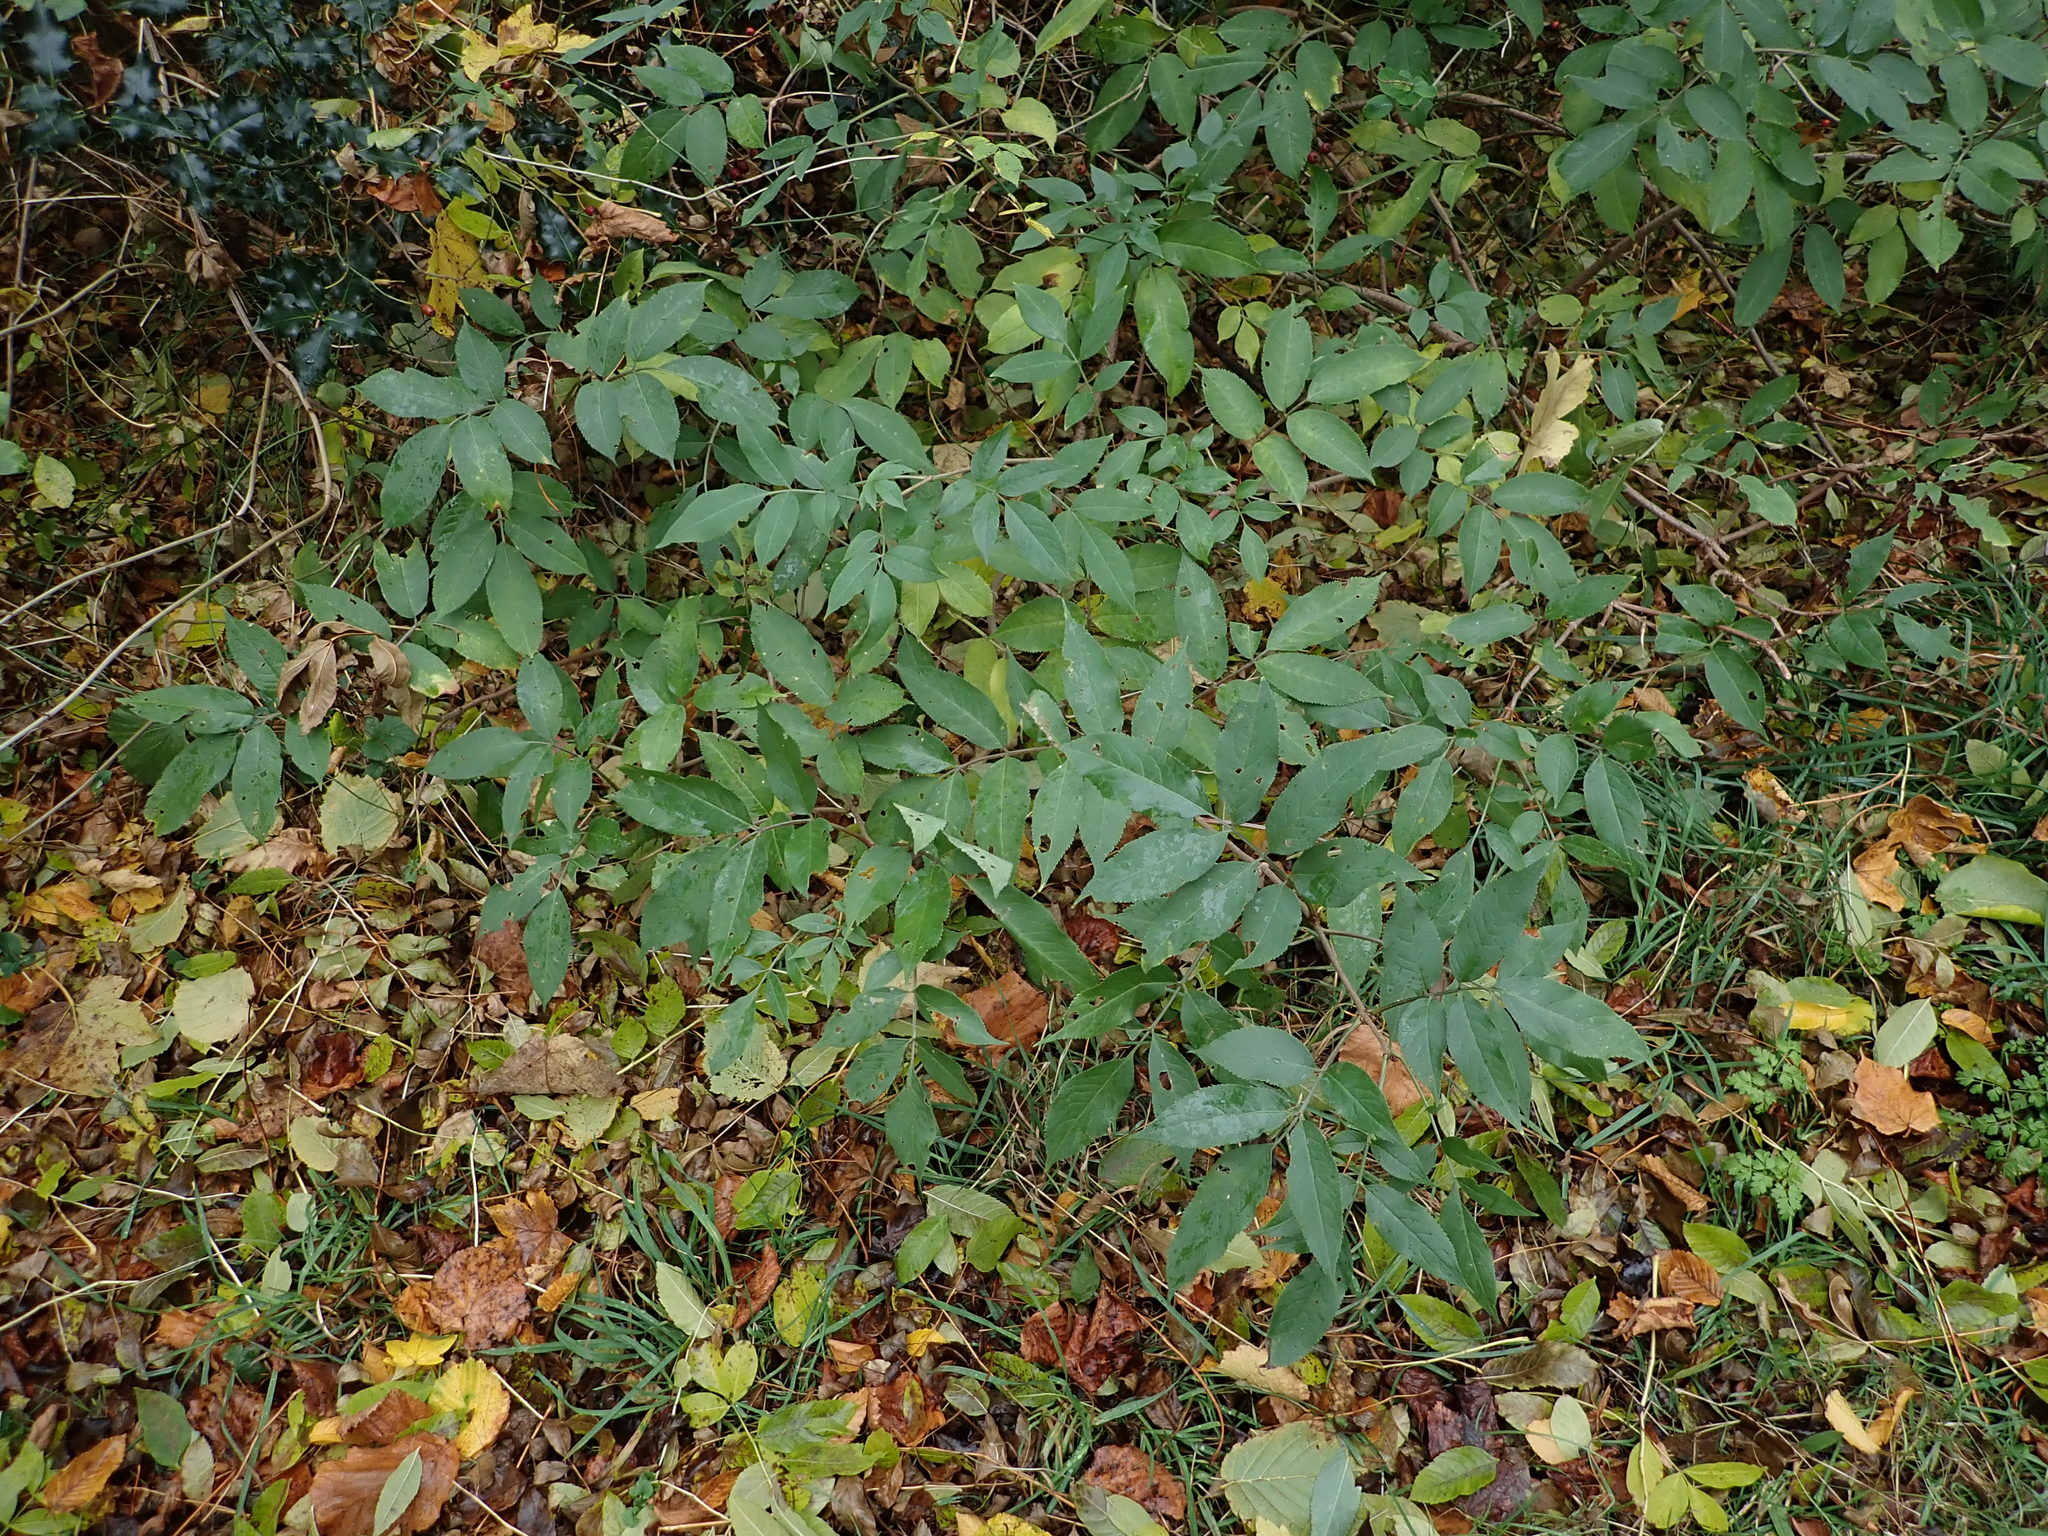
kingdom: Plantae
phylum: Tracheophyta
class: Magnoliopsida
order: Dipsacales
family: Viburnaceae
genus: Sambucus
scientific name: Sambucus nigra
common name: Elder
